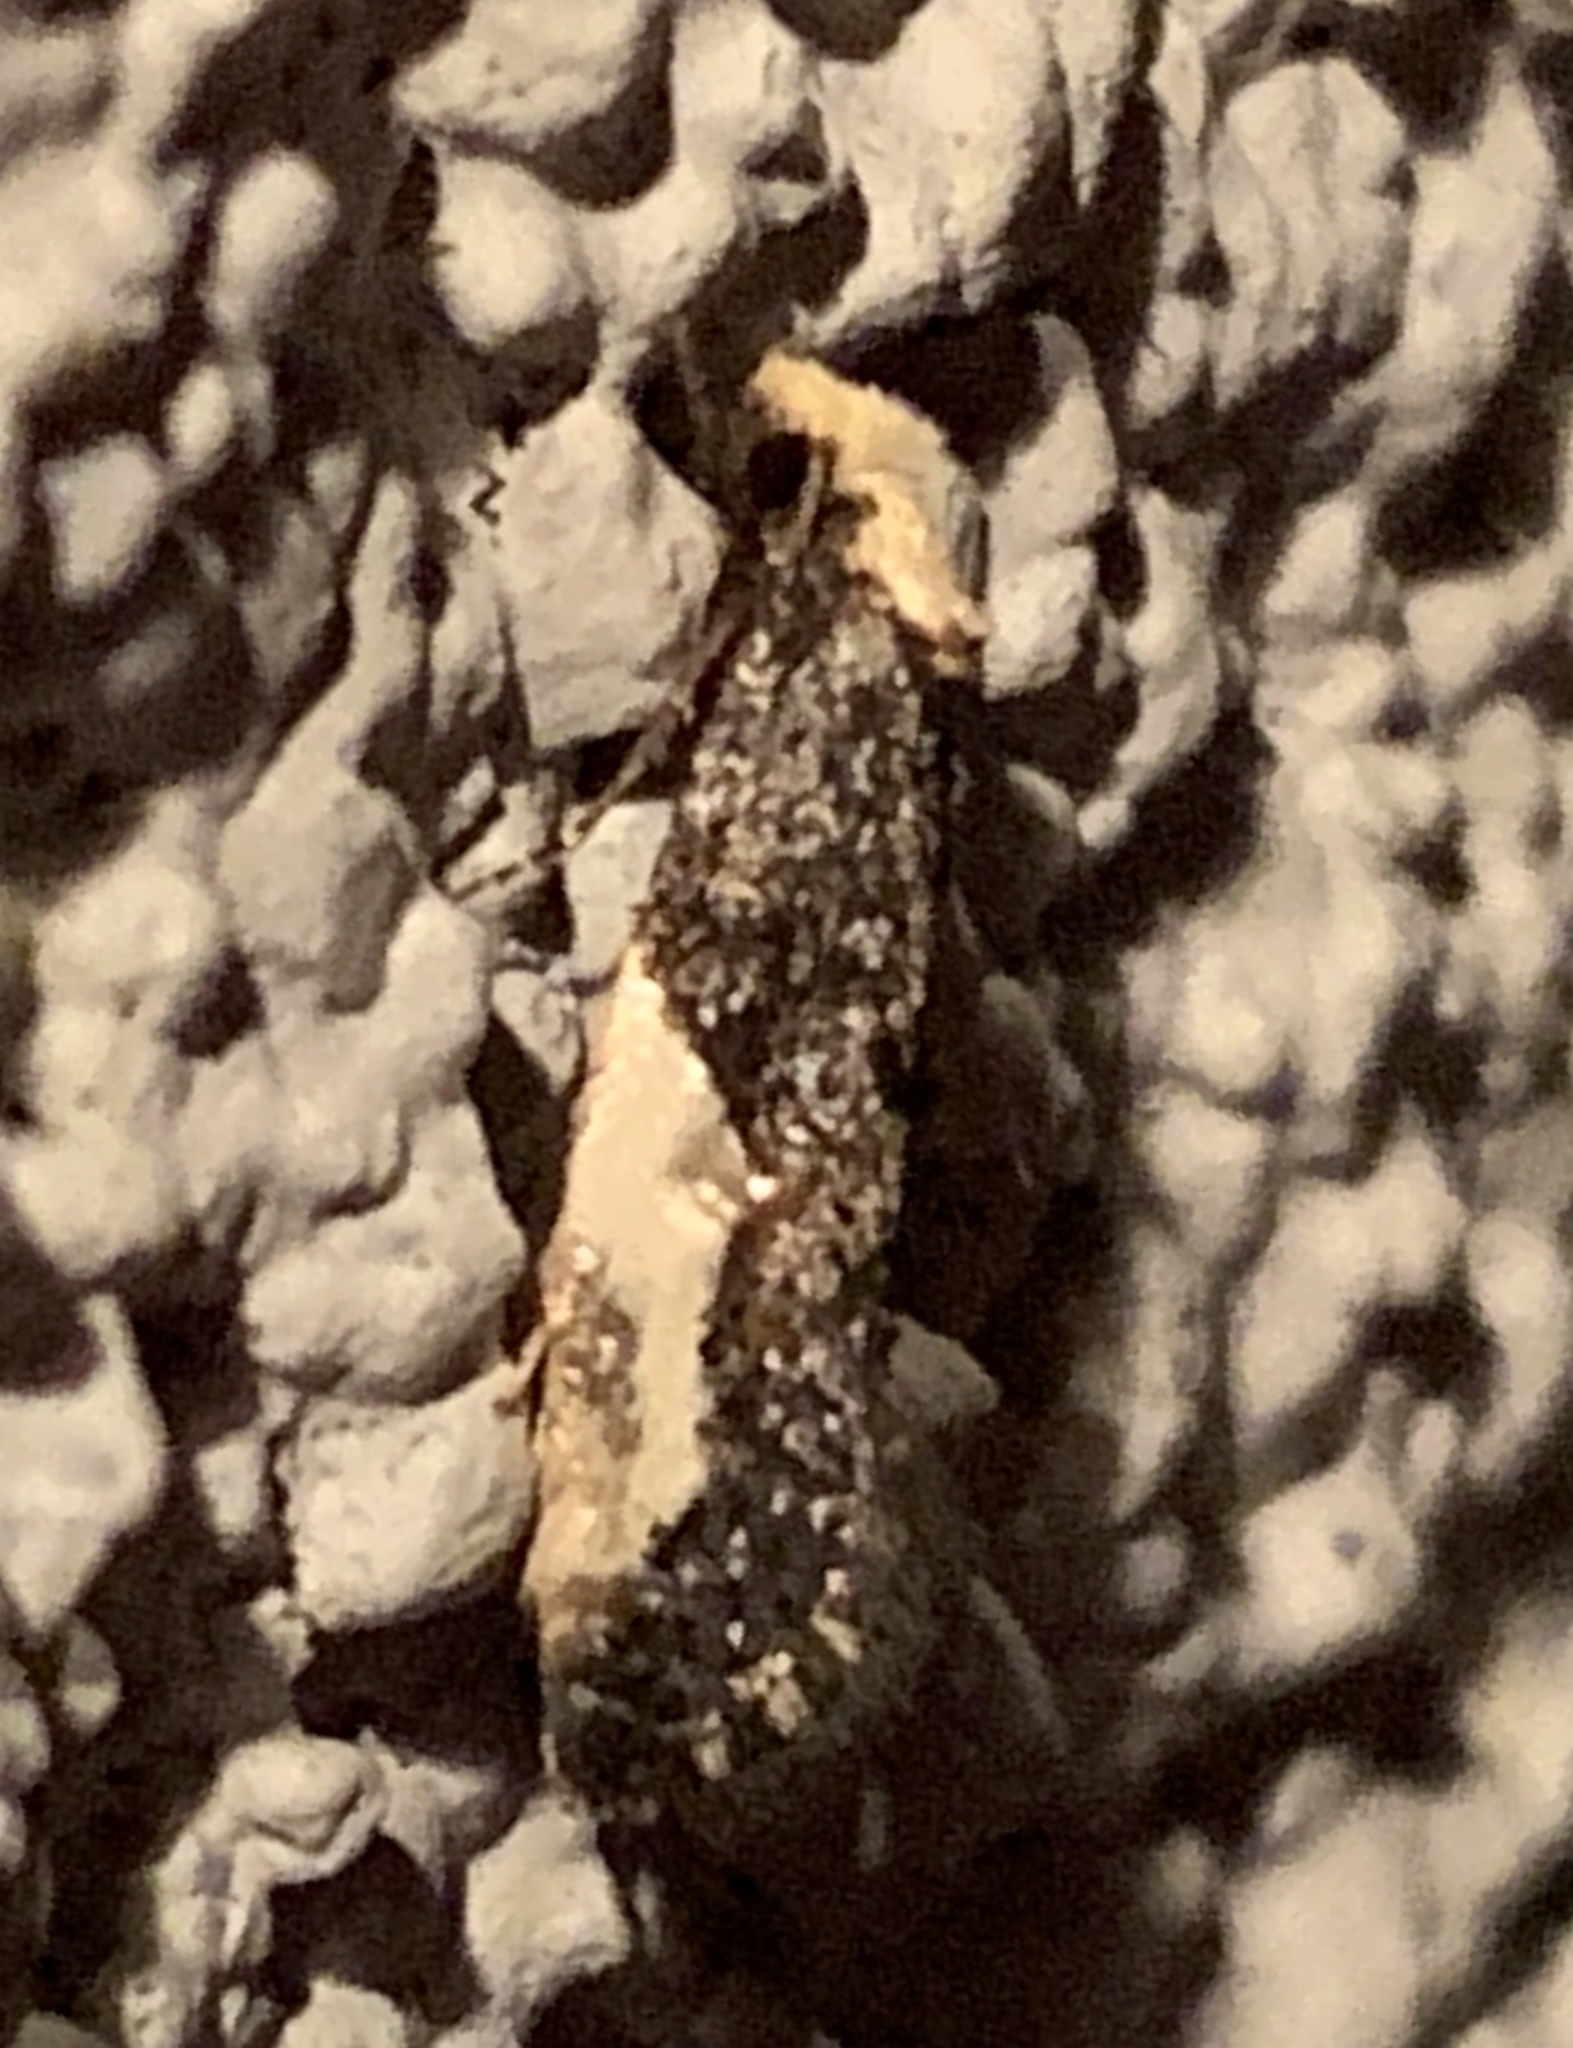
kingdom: Animalia
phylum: Arthropoda
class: Insecta
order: Lepidoptera
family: Tineidae
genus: Monopis
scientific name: Monopis longella
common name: Pavlovski's monopis moth
